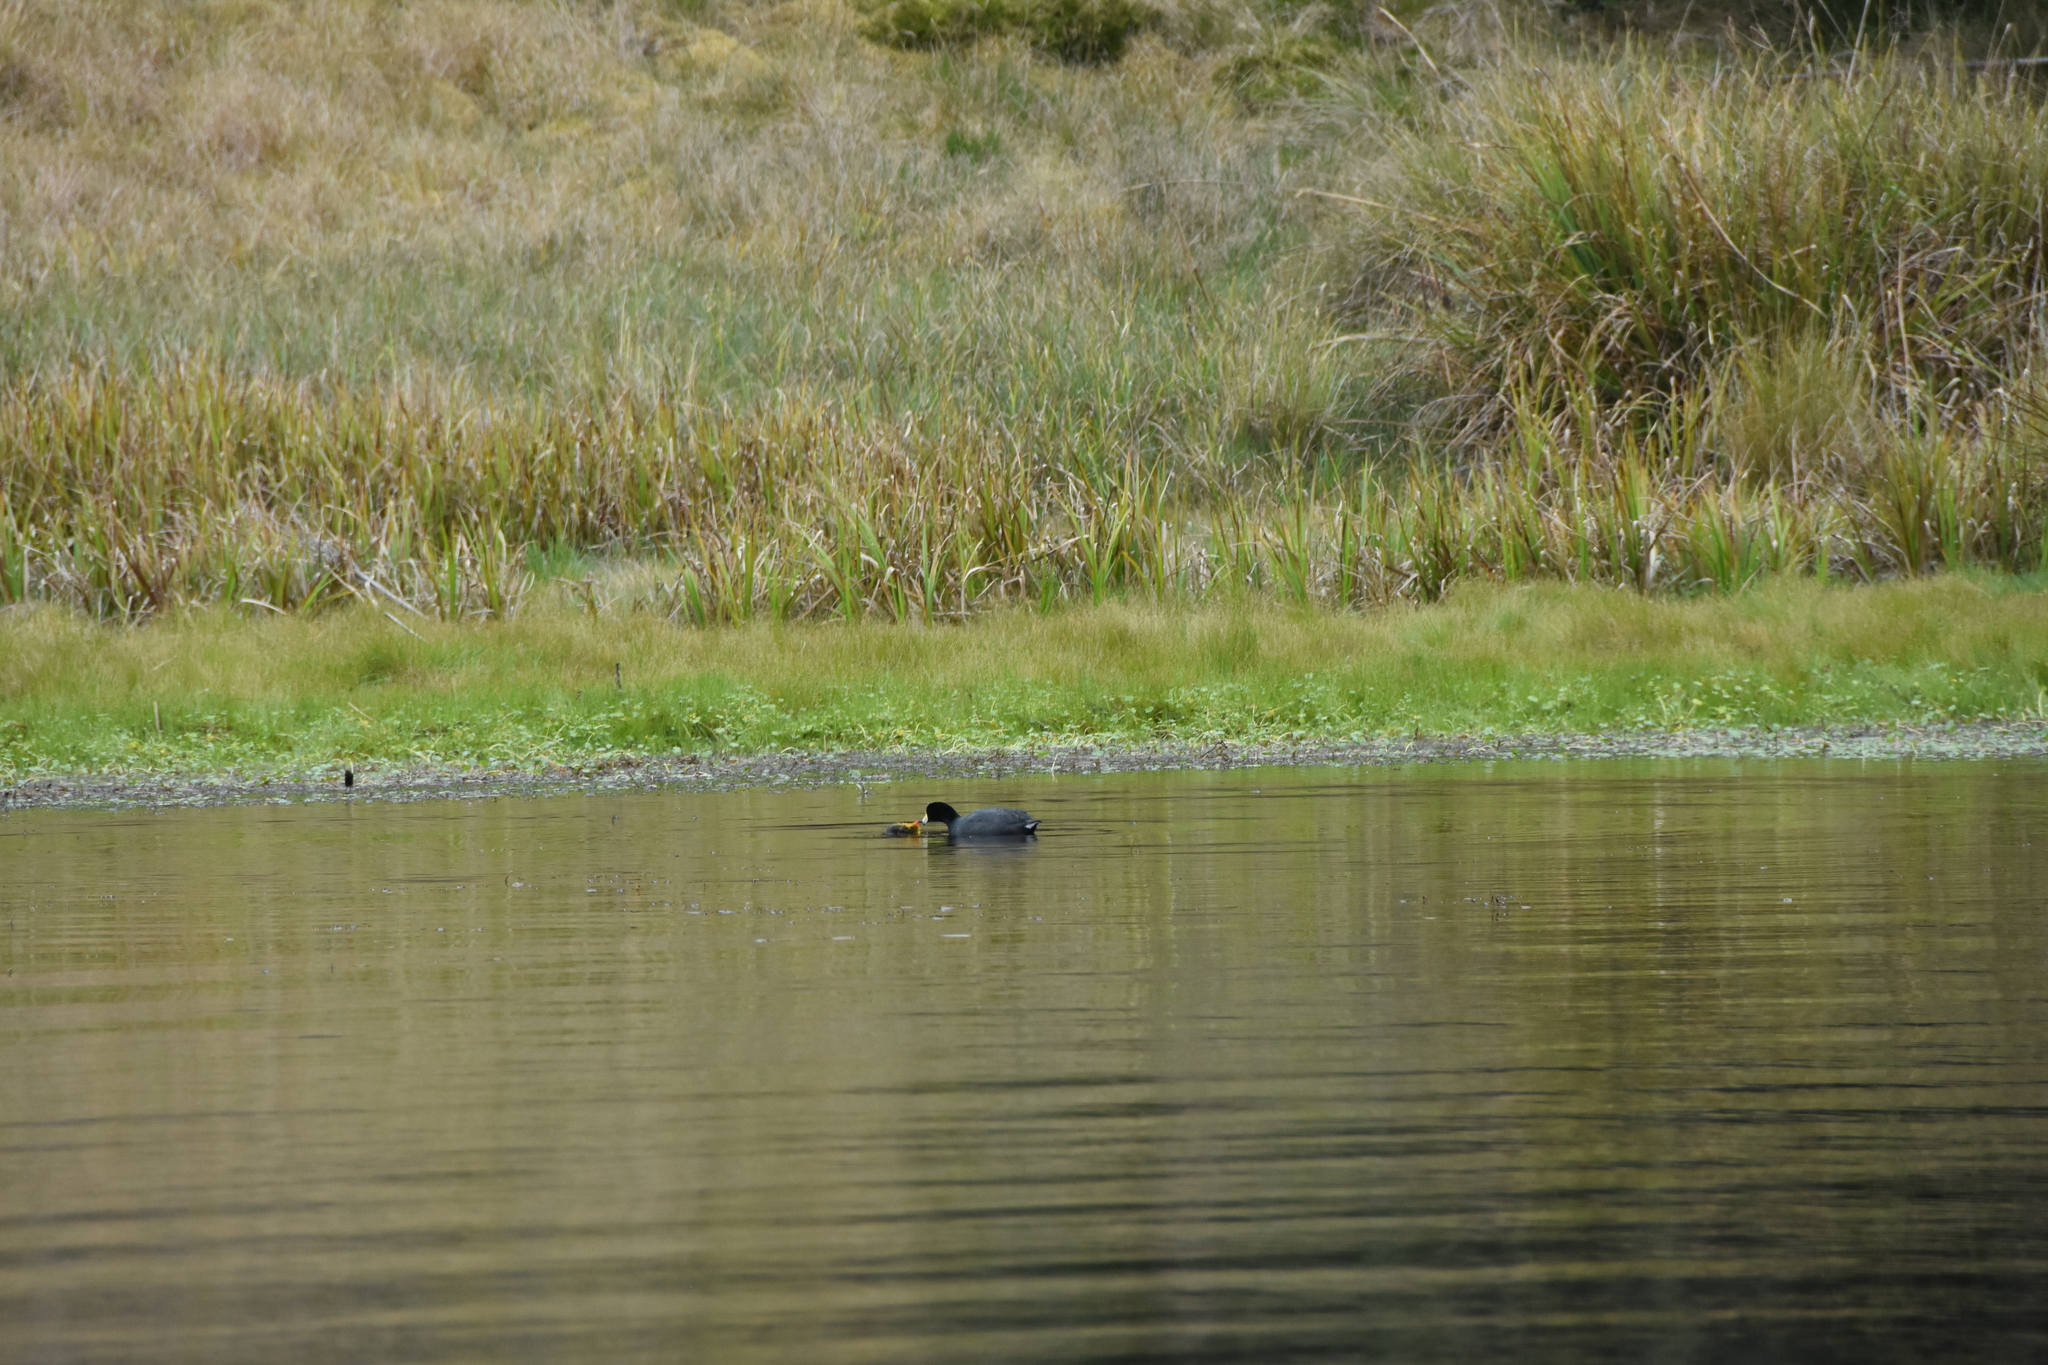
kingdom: Animalia
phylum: Chordata
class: Aves
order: Gruiformes
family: Rallidae
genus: Fulica
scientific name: Fulica americana
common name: American coot
